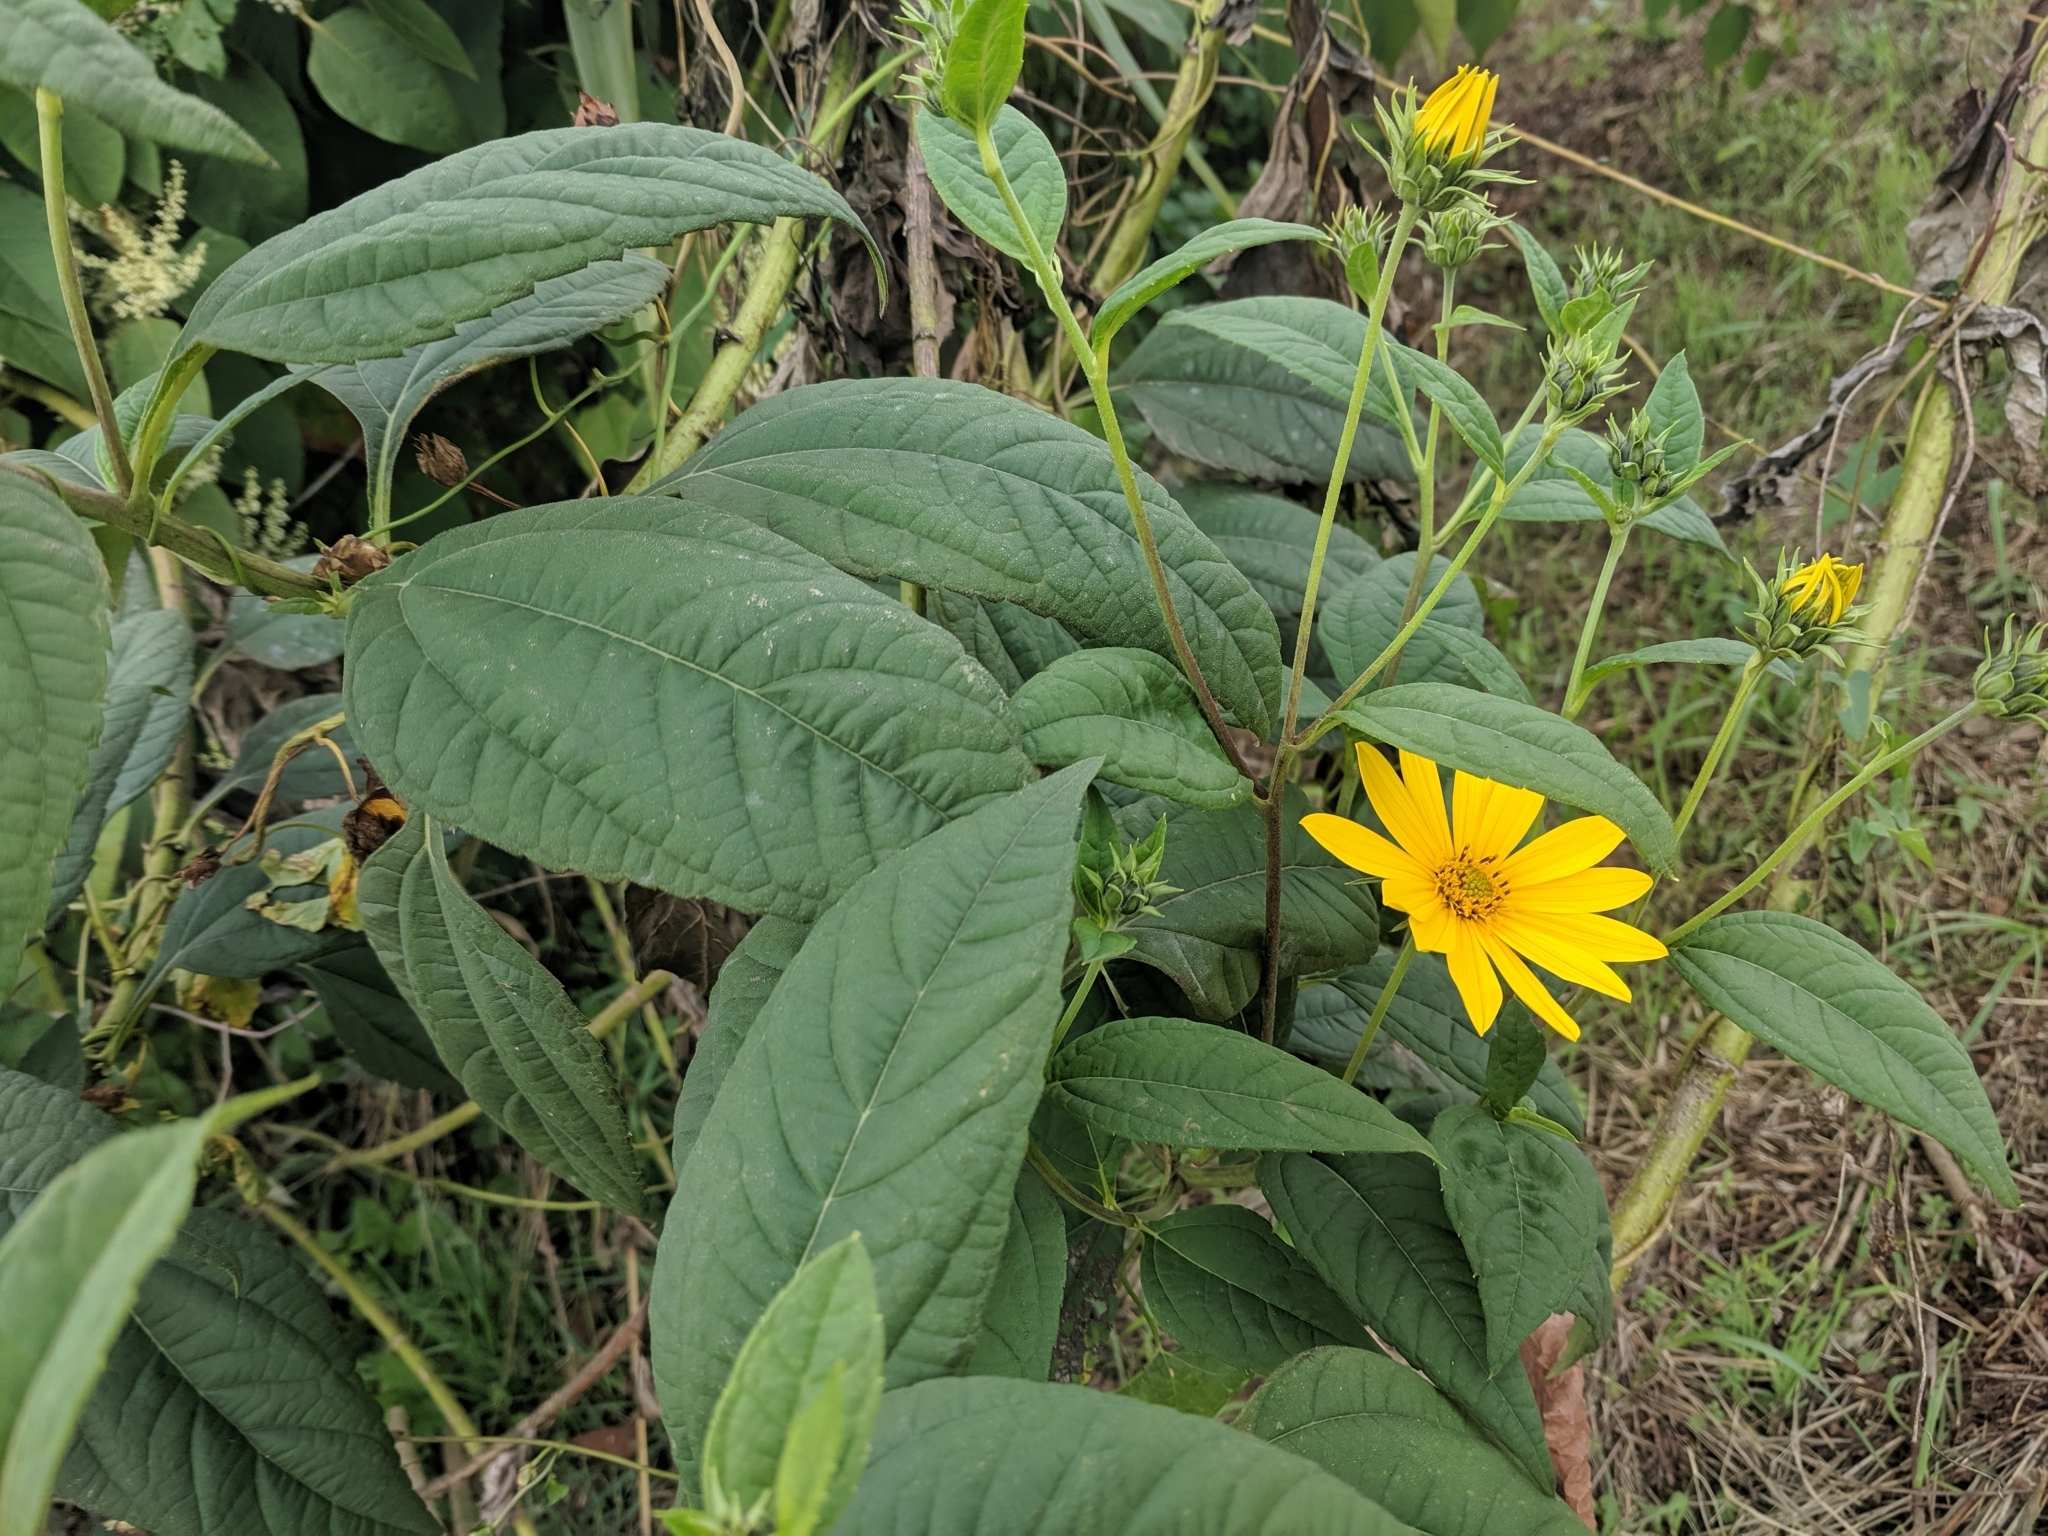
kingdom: Plantae
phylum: Tracheophyta
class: Magnoliopsida
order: Asterales
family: Asteraceae
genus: Helianthus
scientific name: Helianthus tuberosus
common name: Jerusalem artichoke
